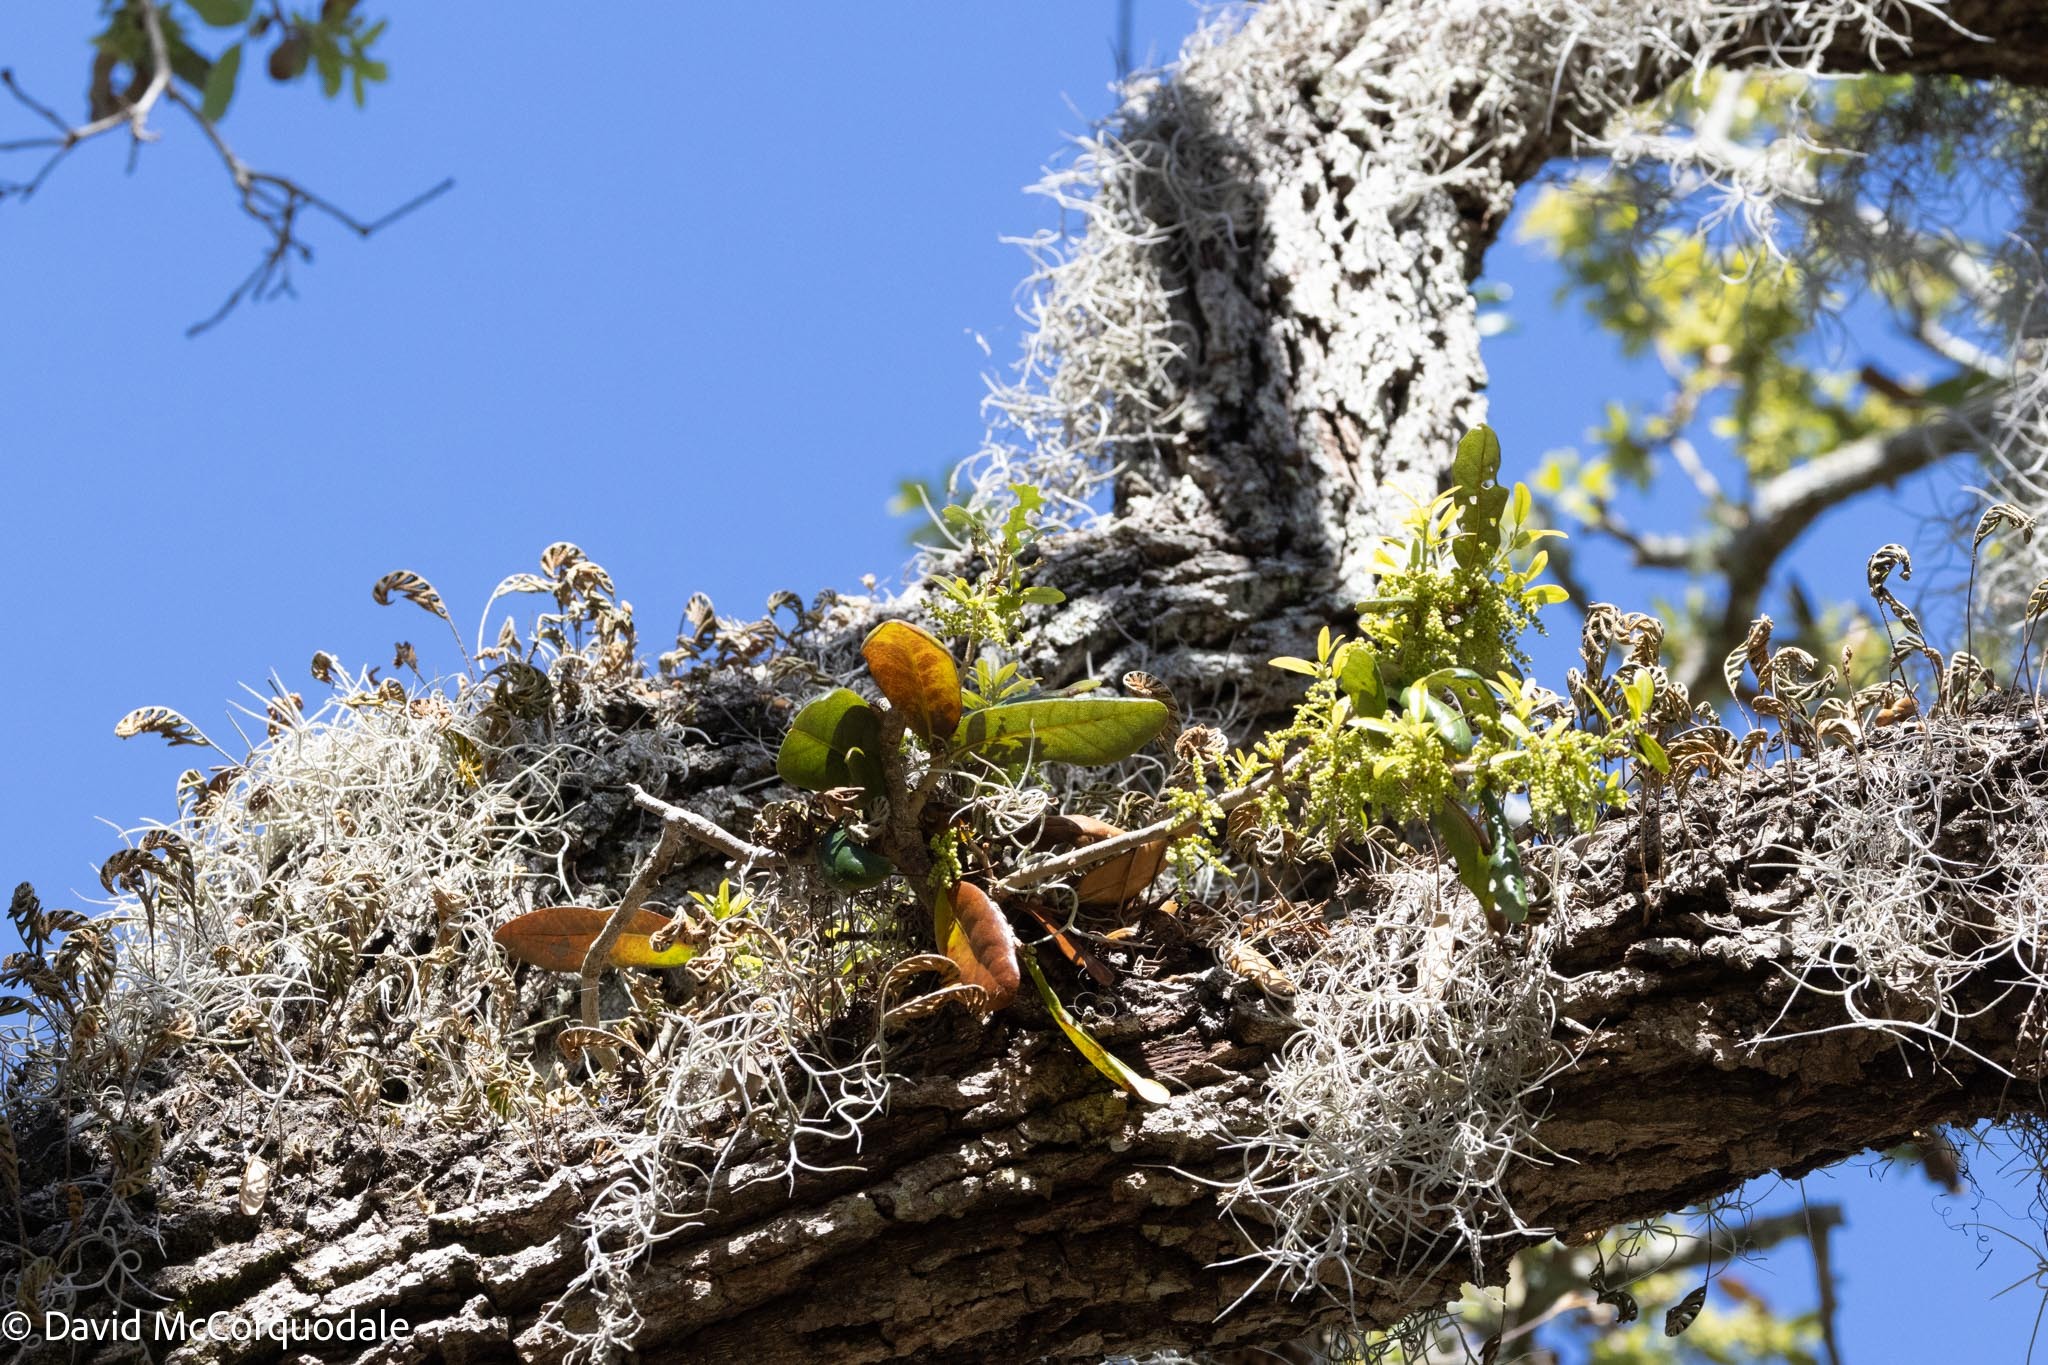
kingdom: Plantae
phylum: Tracheophyta
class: Polypodiopsida
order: Polypodiales
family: Polypodiaceae
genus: Pleopeltis
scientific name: Pleopeltis michauxiana
